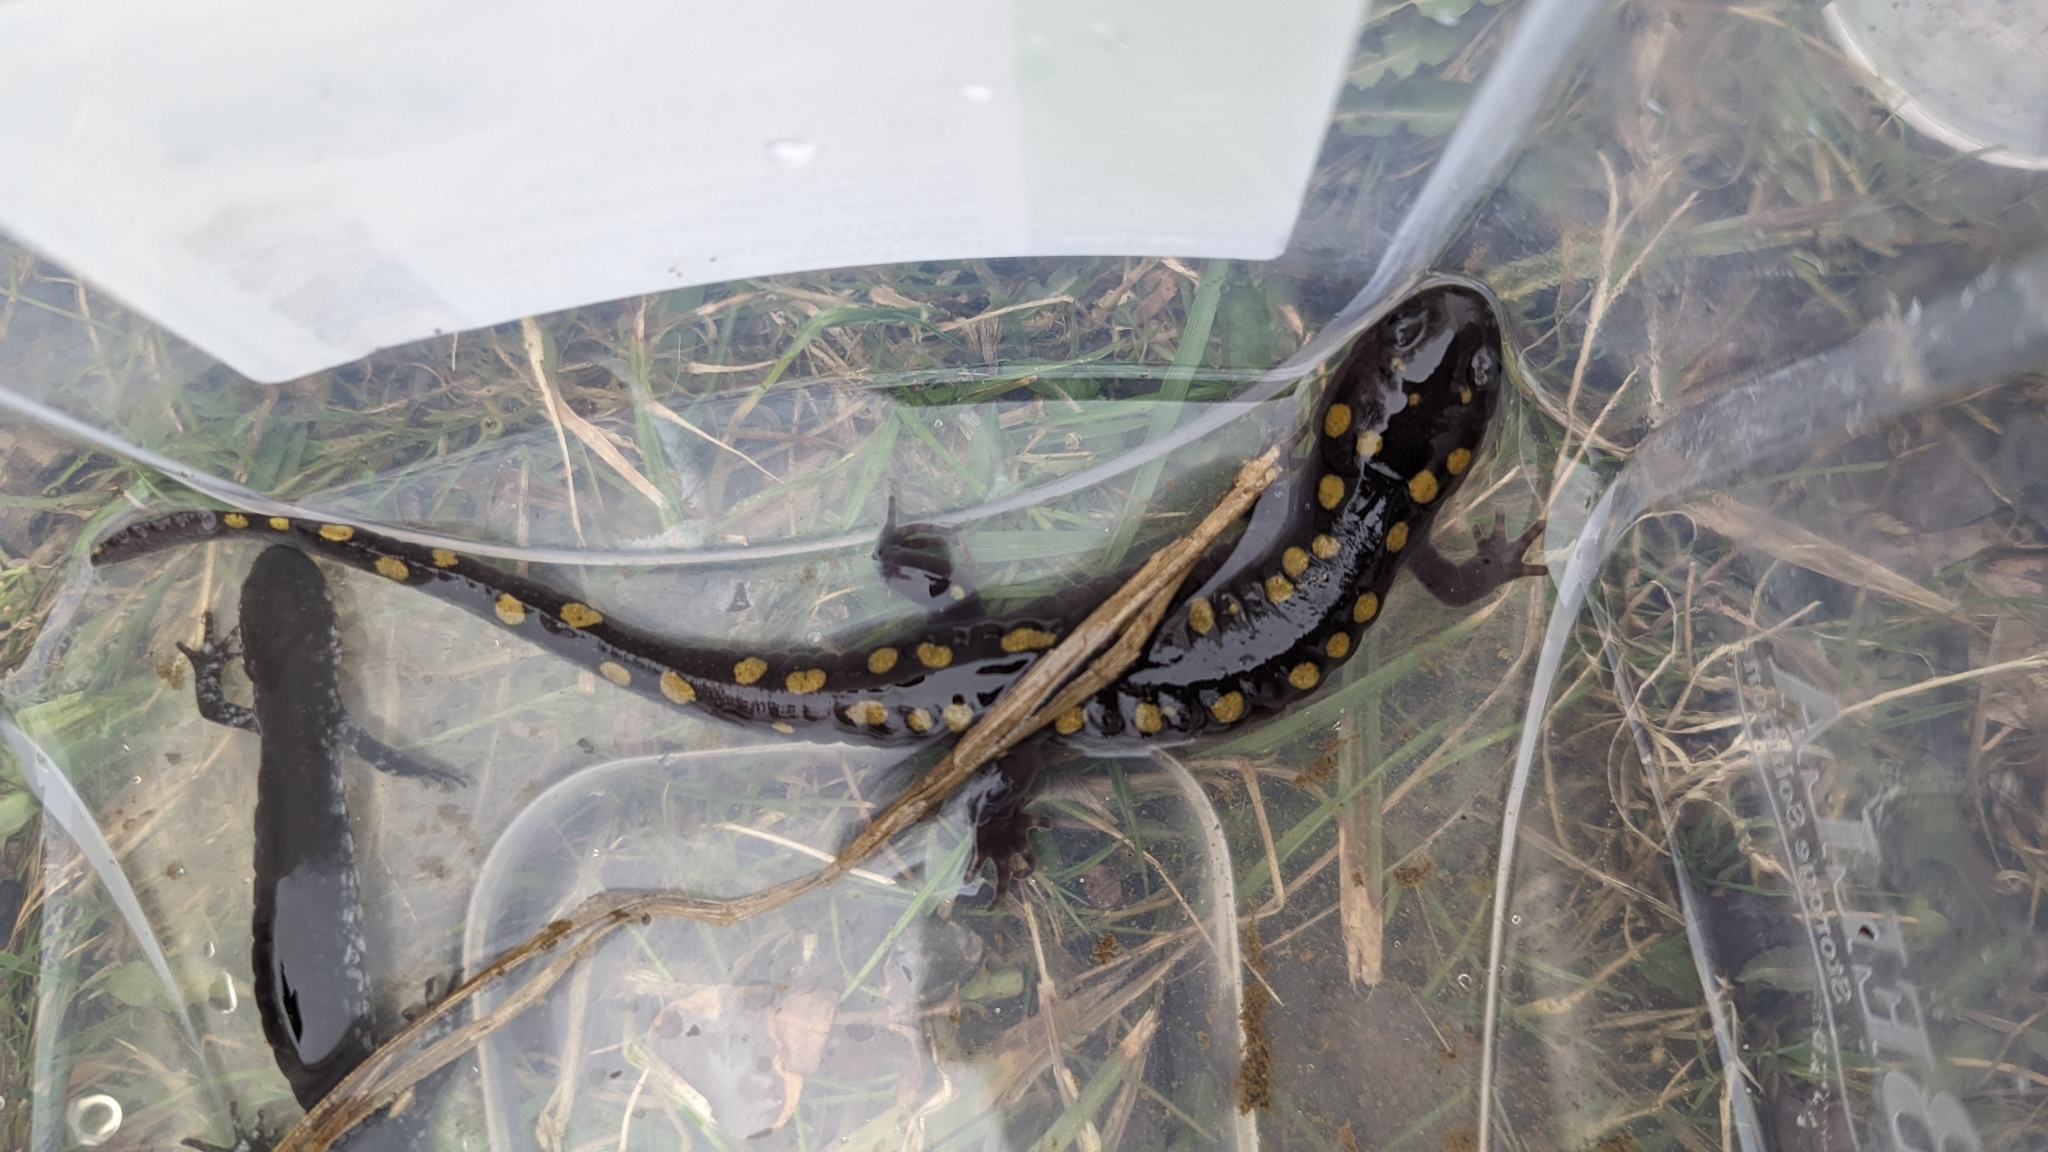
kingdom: Animalia
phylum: Chordata
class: Amphibia
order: Caudata
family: Ambystomatidae
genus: Ambystoma
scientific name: Ambystoma maculatum
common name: Spotted salamander
